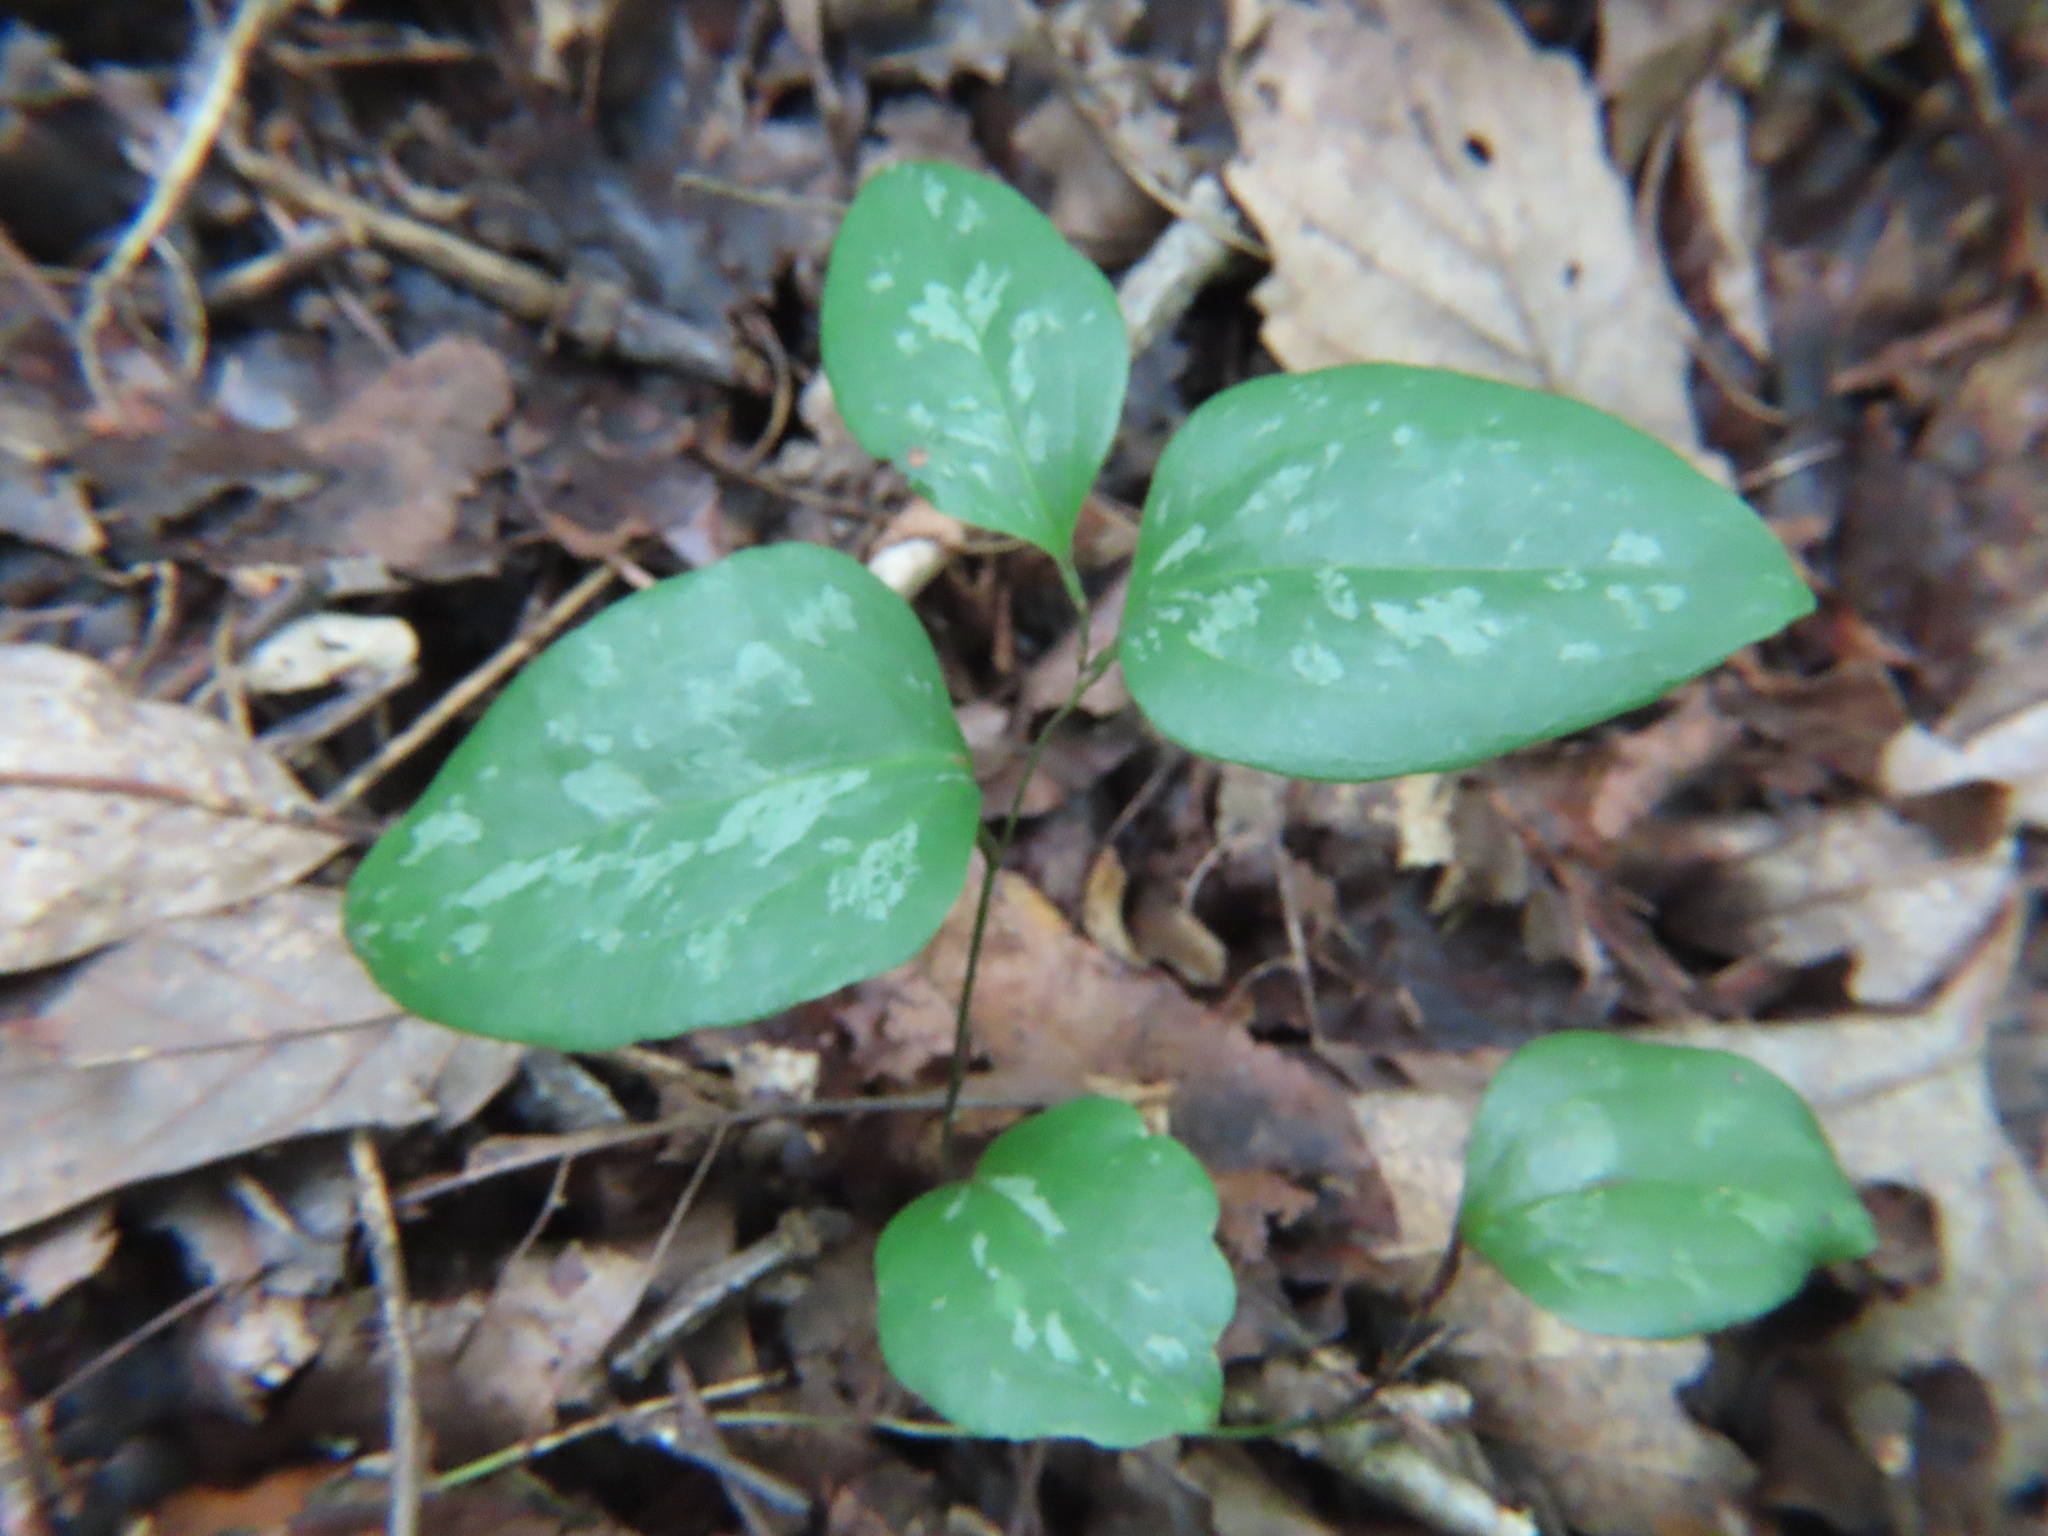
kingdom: Plantae
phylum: Tracheophyta
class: Liliopsida
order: Liliales
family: Smilacaceae
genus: Smilax
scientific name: Smilax glauca
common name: Cat greenbrier
